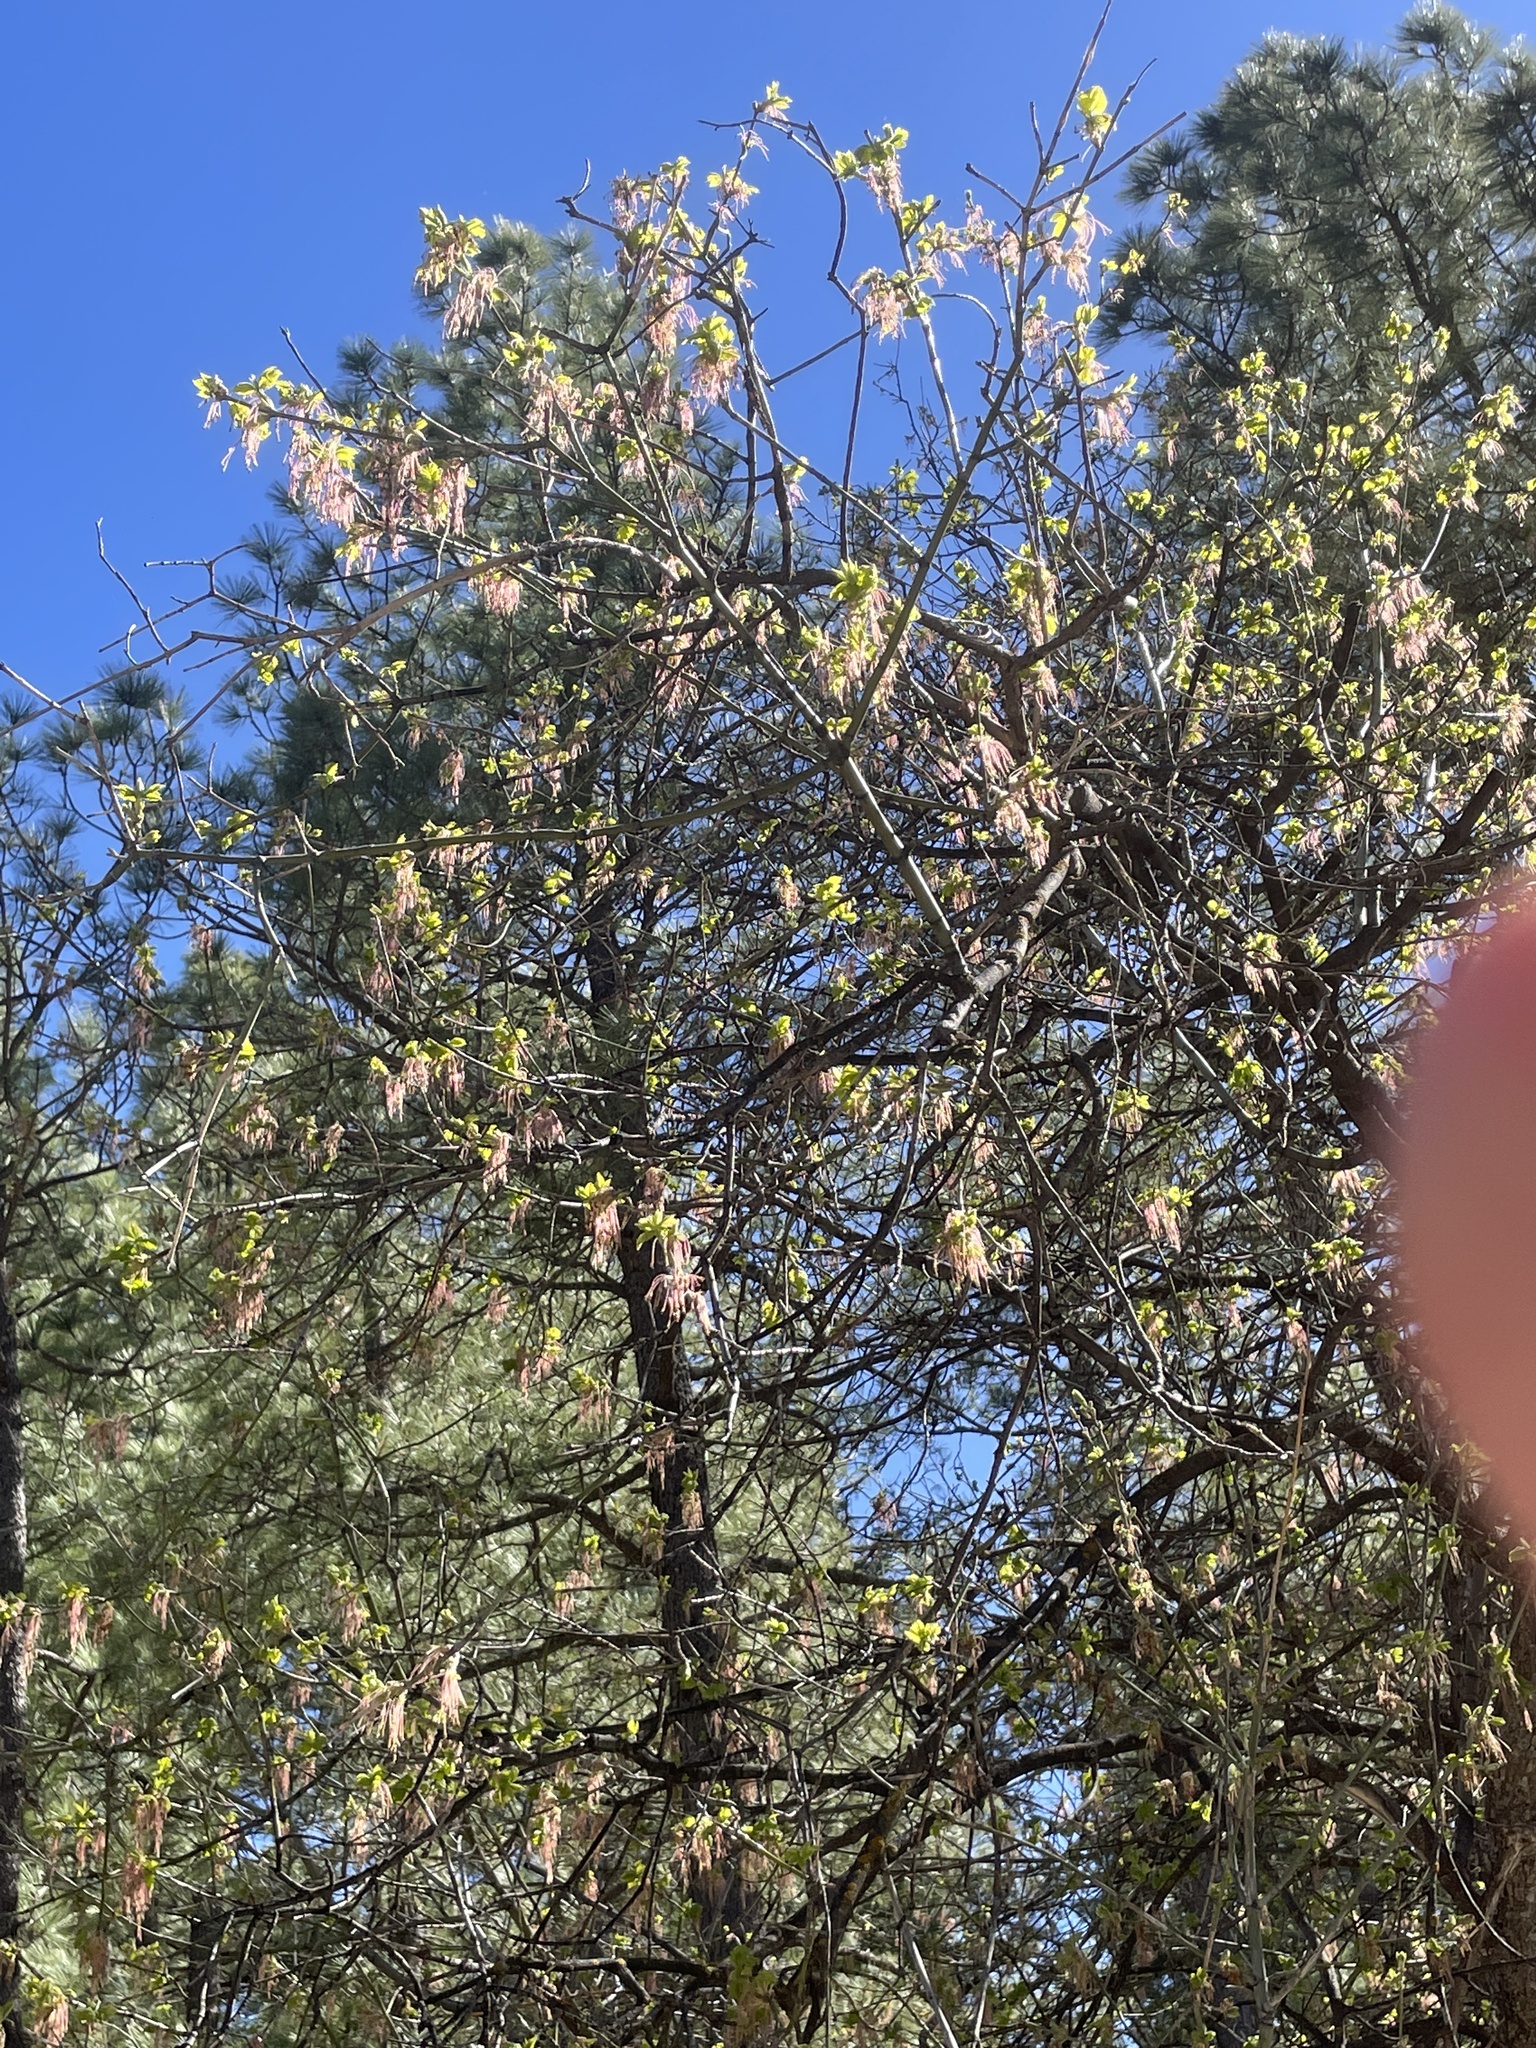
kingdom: Plantae
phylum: Tracheophyta
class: Magnoliopsida
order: Sapindales
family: Sapindaceae
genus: Acer
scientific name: Acer negundo
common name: Ashleaf maple
